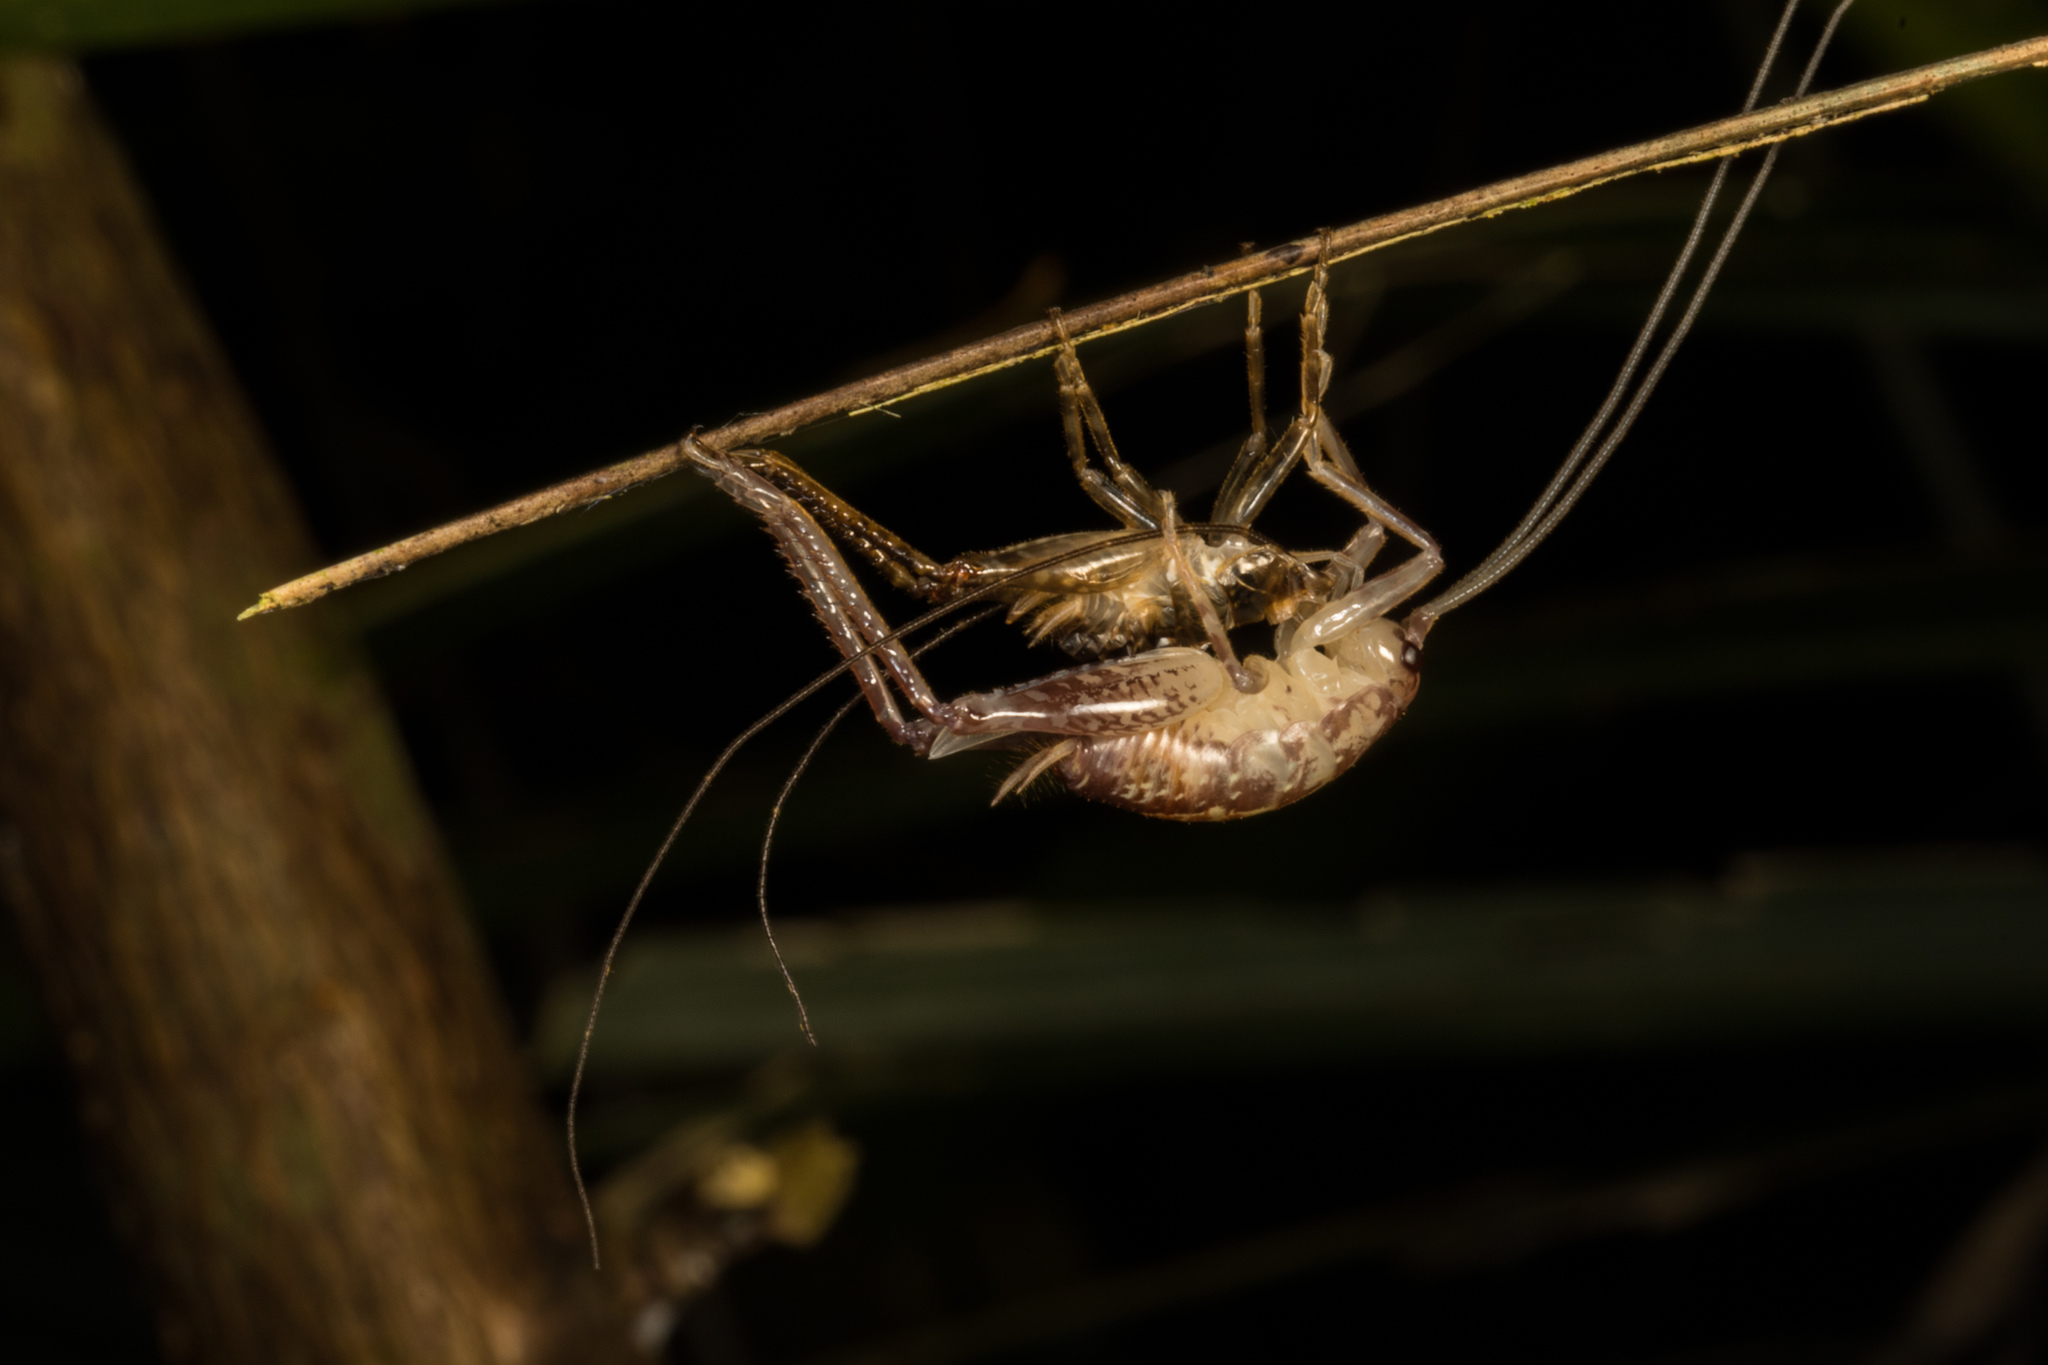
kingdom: Animalia
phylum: Arthropoda
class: Insecta
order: Orthoptera
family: Rhaphidophoridae
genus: Talitropsis
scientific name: Talitropsis sedilloti
